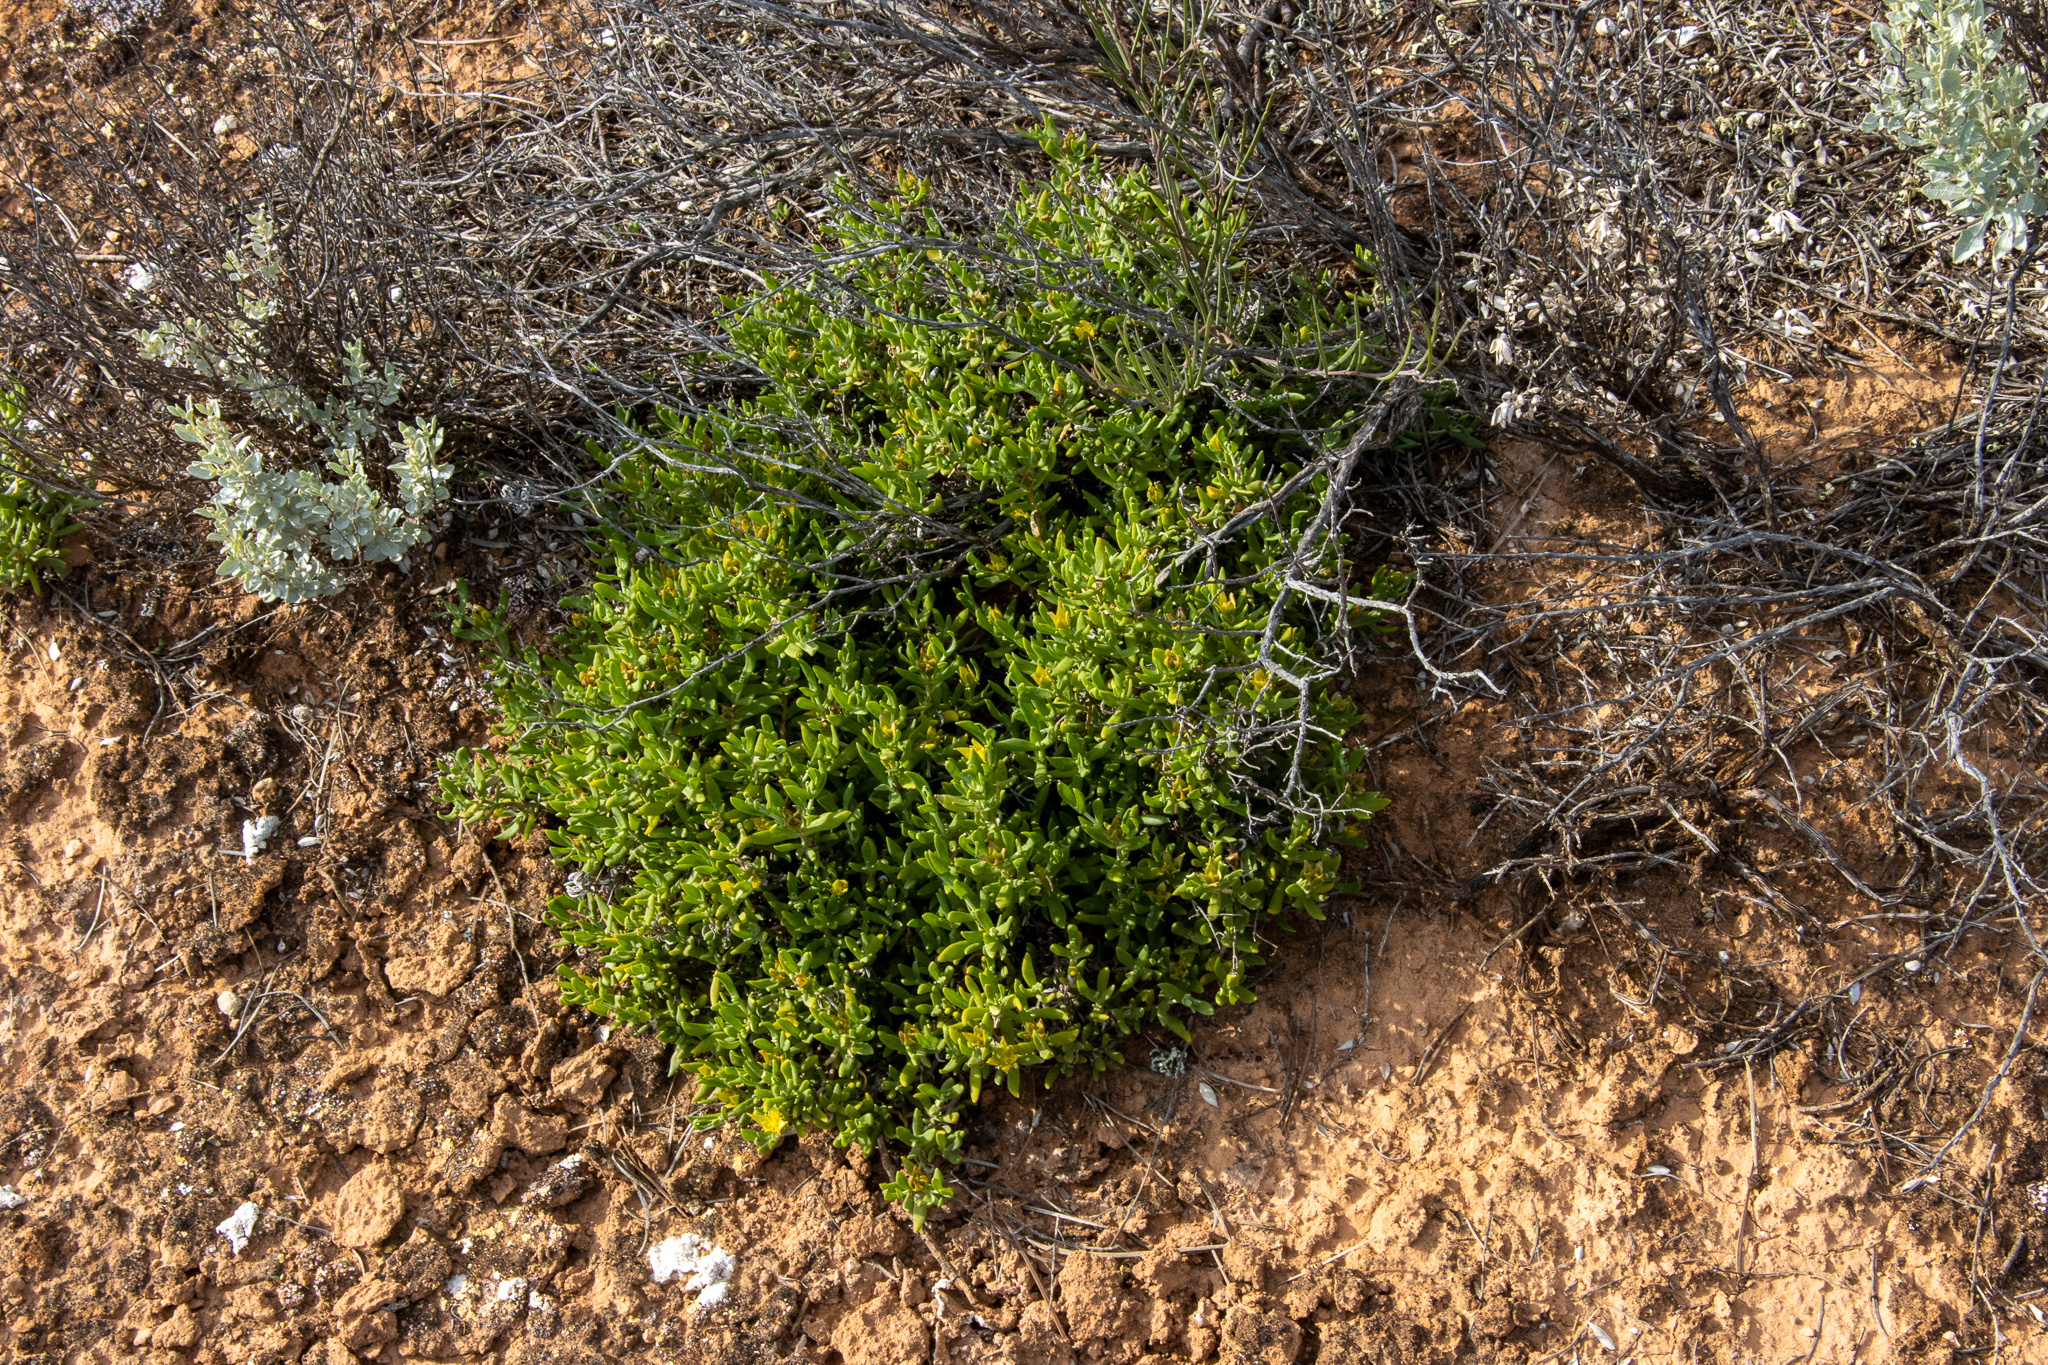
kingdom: Plantae
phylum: Tracheophyta
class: Magnoliopsida
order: Caryophyllales
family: Aizoaceae
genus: Gunniopsis
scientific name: Gunniopsis calcarea
